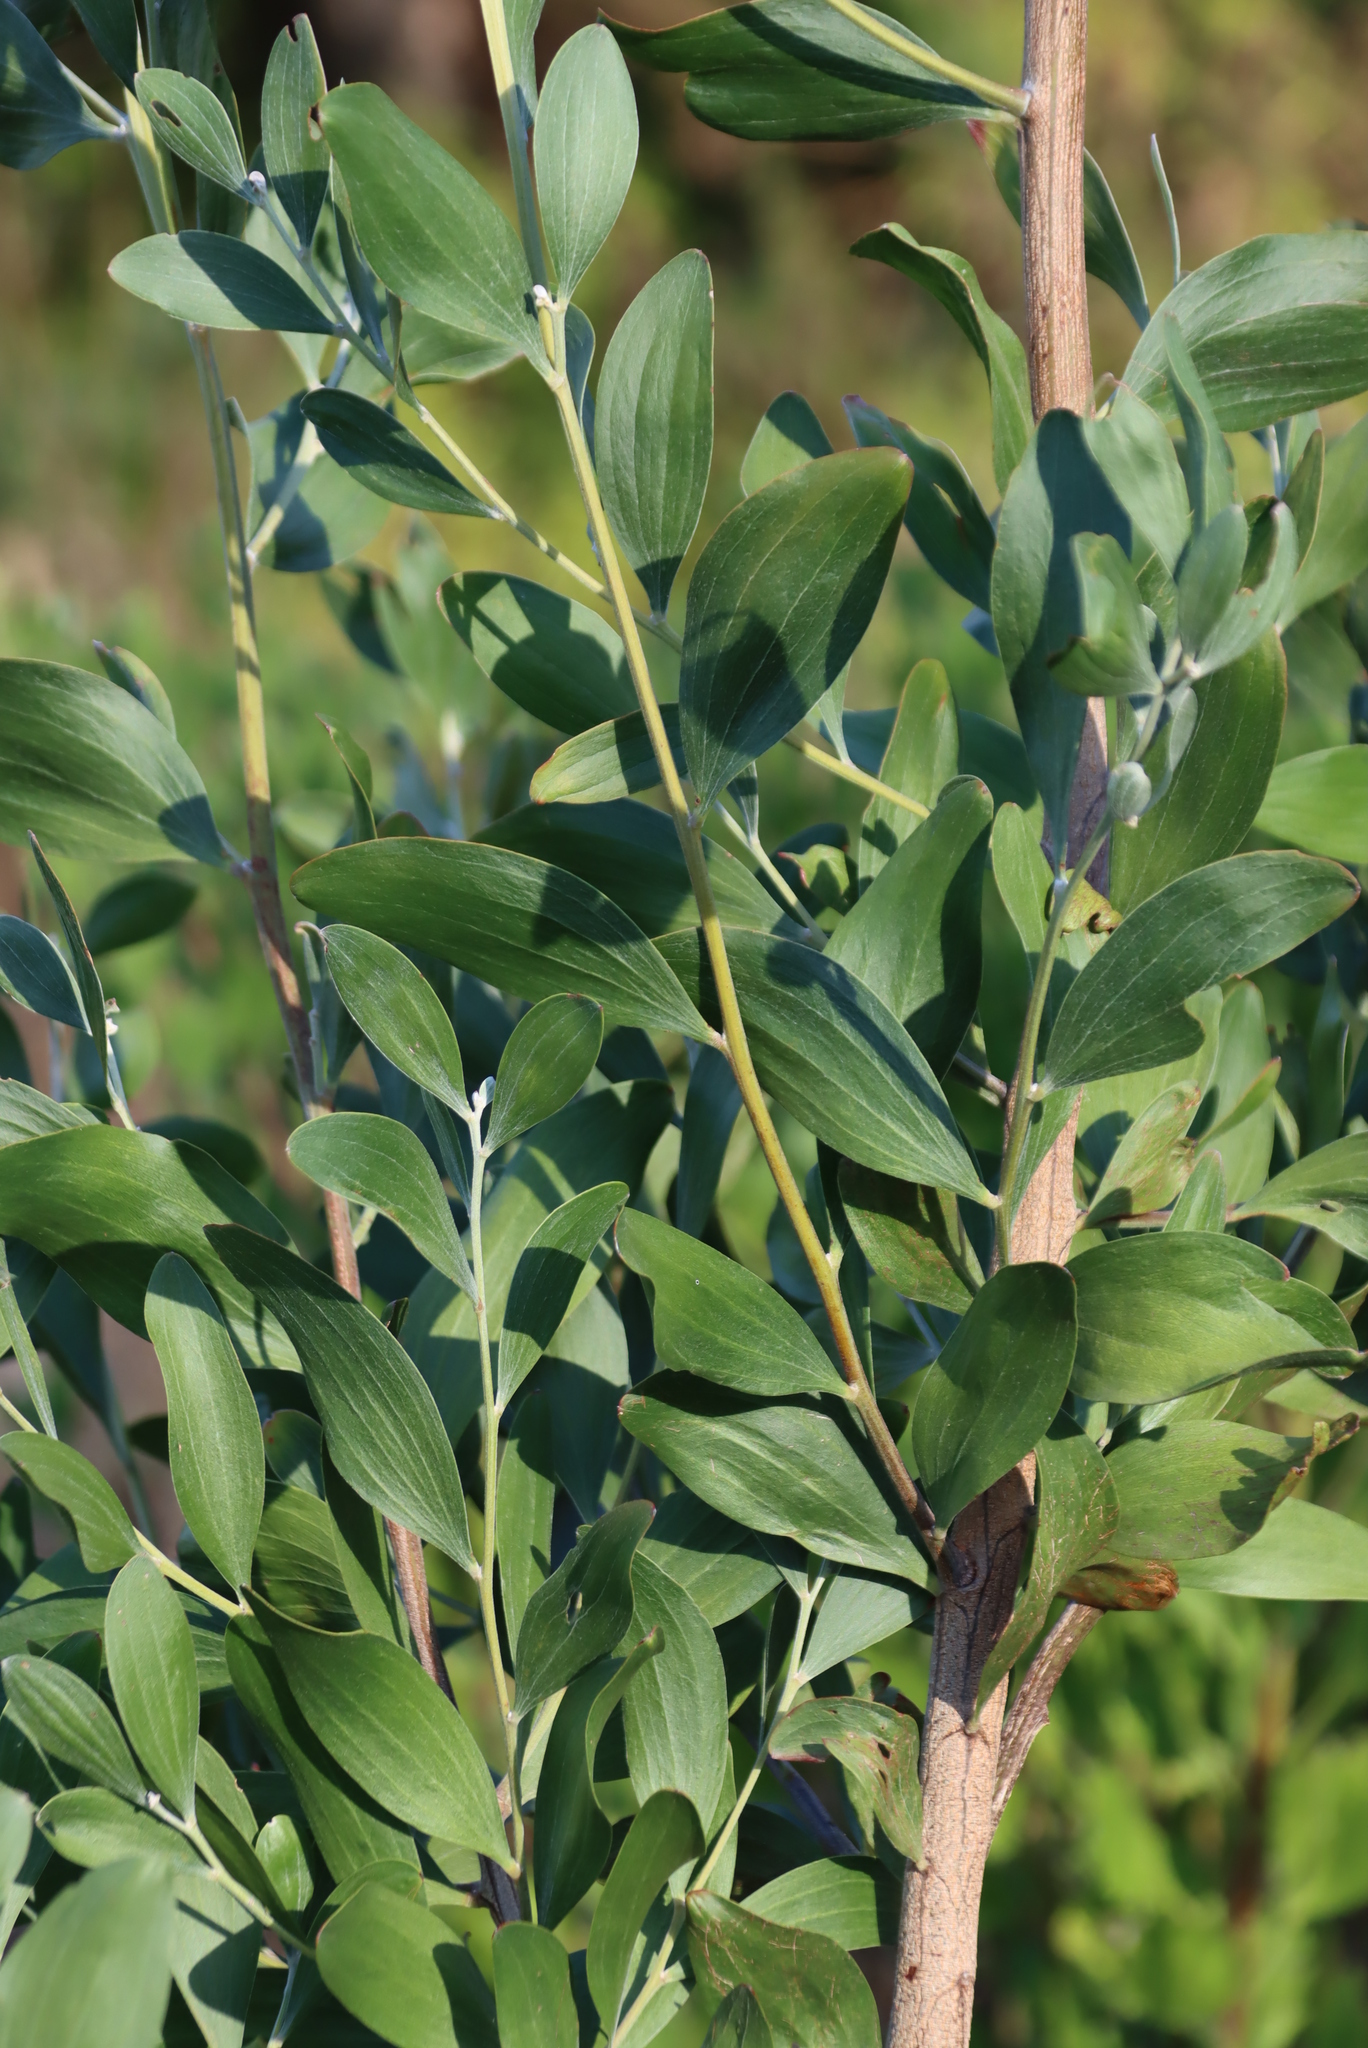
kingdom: Plantae
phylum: Tracheophyta
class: Magnoliopsida
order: Fabales
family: Fabaceae
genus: Acacia
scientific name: Acacia melanoxylon
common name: Blackwood
